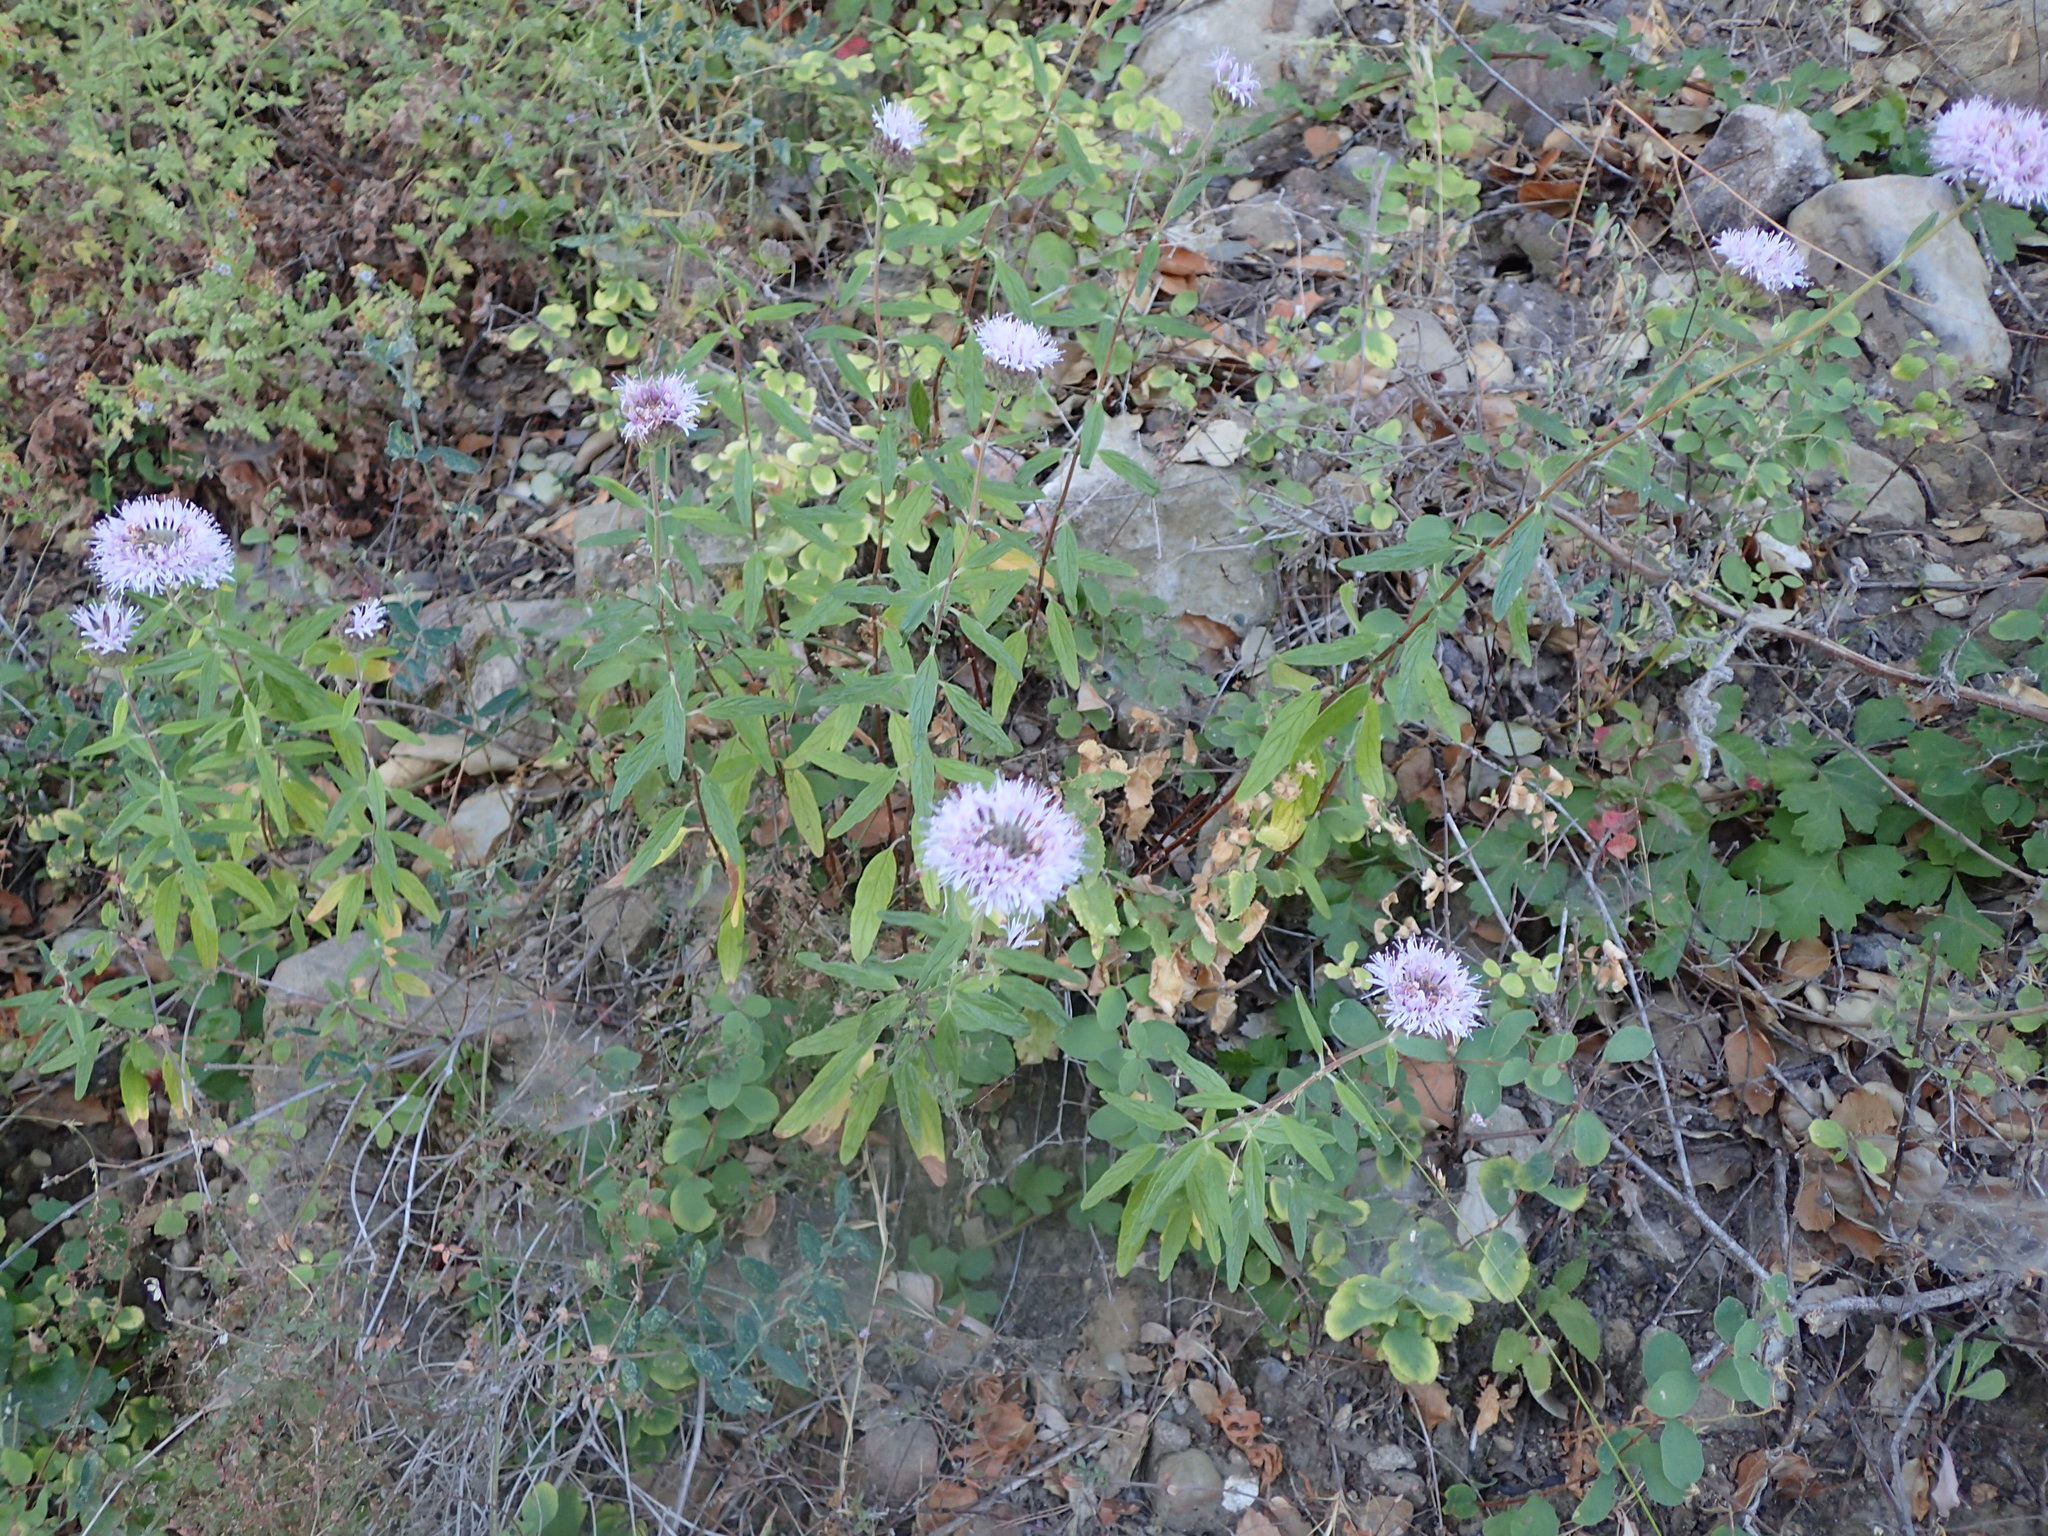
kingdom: Plantae
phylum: Tracheophyta
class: Magnoliopsida
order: Lamiales
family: Lamiaceae
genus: Monardella
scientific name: Monardella hypoleuca
